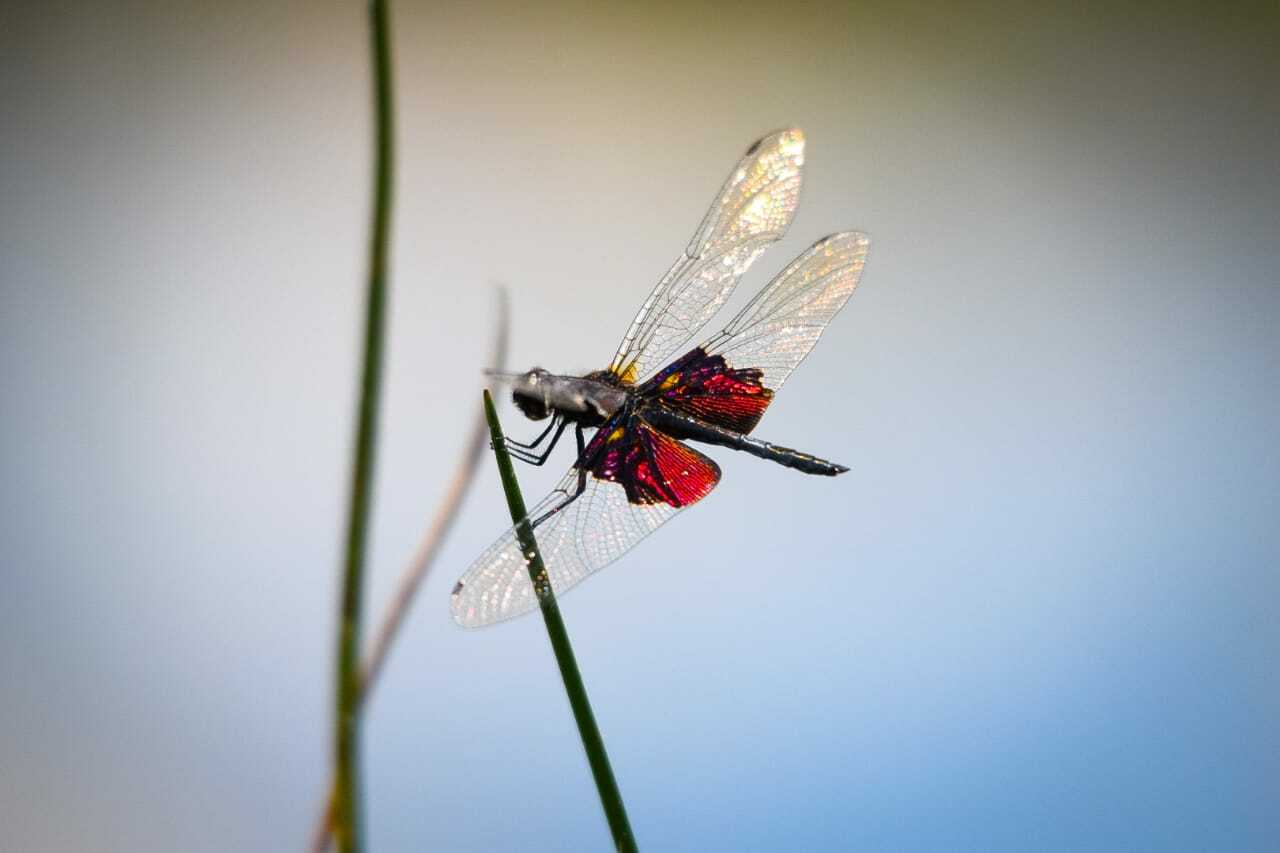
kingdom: Animalia
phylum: Arthropoda
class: Insecta
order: Odonata
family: Libellulidae
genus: Rhyothemis
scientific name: Rhyothemis semihyalina
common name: Phantom flutterer
